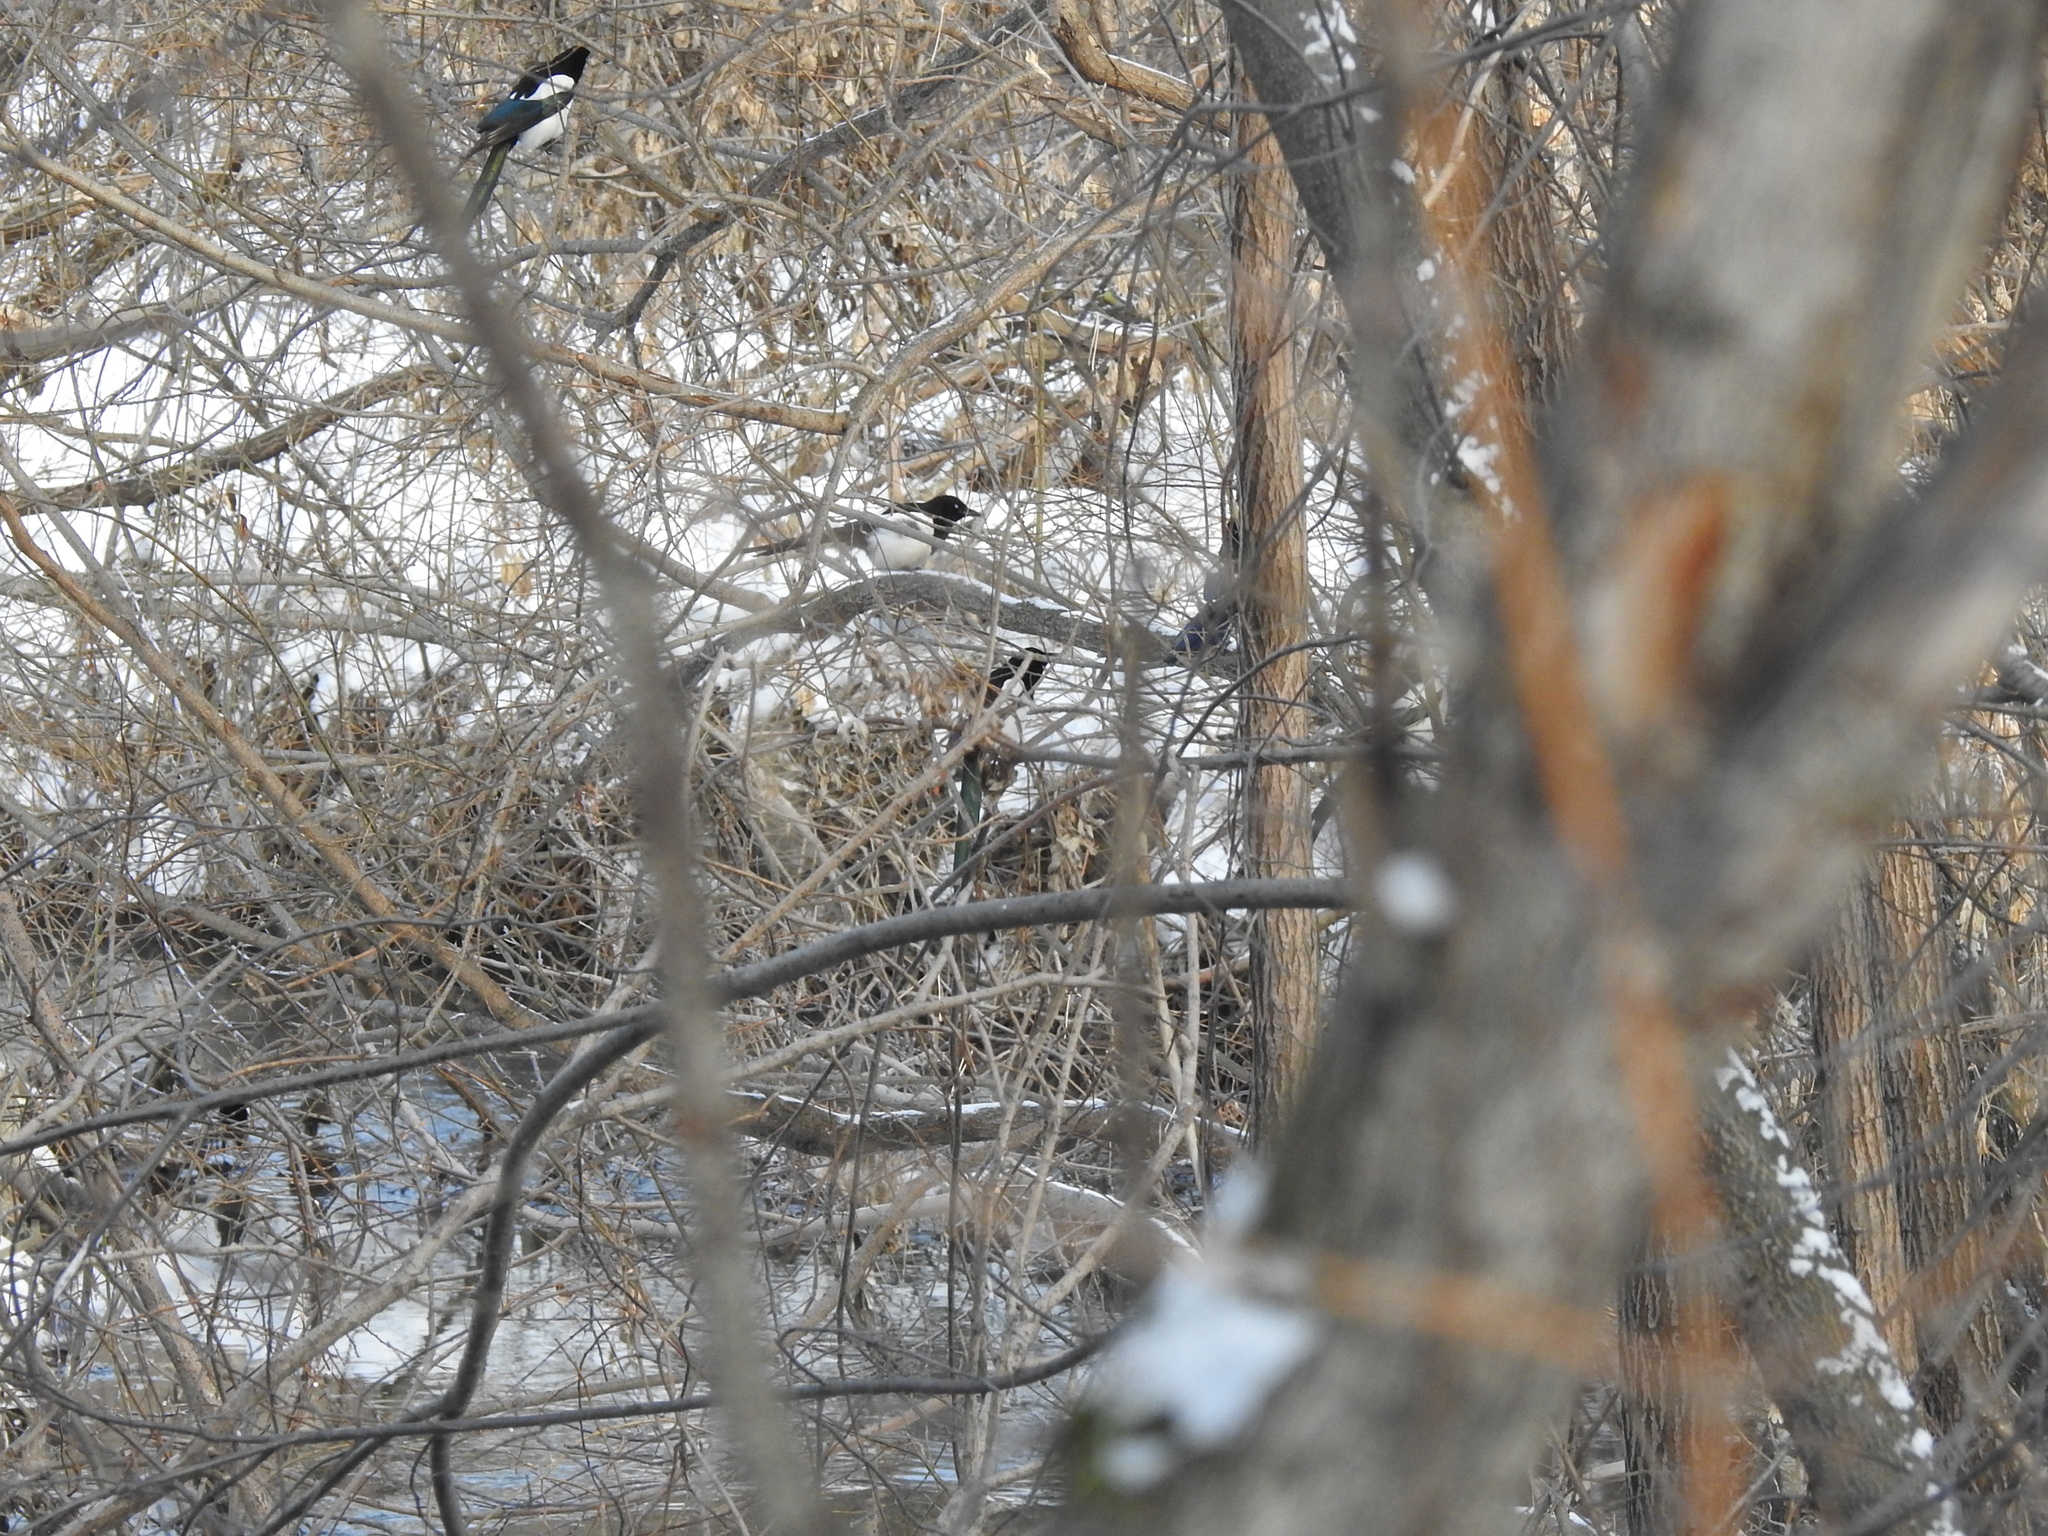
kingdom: Animalia
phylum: Chordata
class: Aves
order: Passeriformes
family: Corvidae
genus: Pica
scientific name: Pica pica
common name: Eurasian magpie
